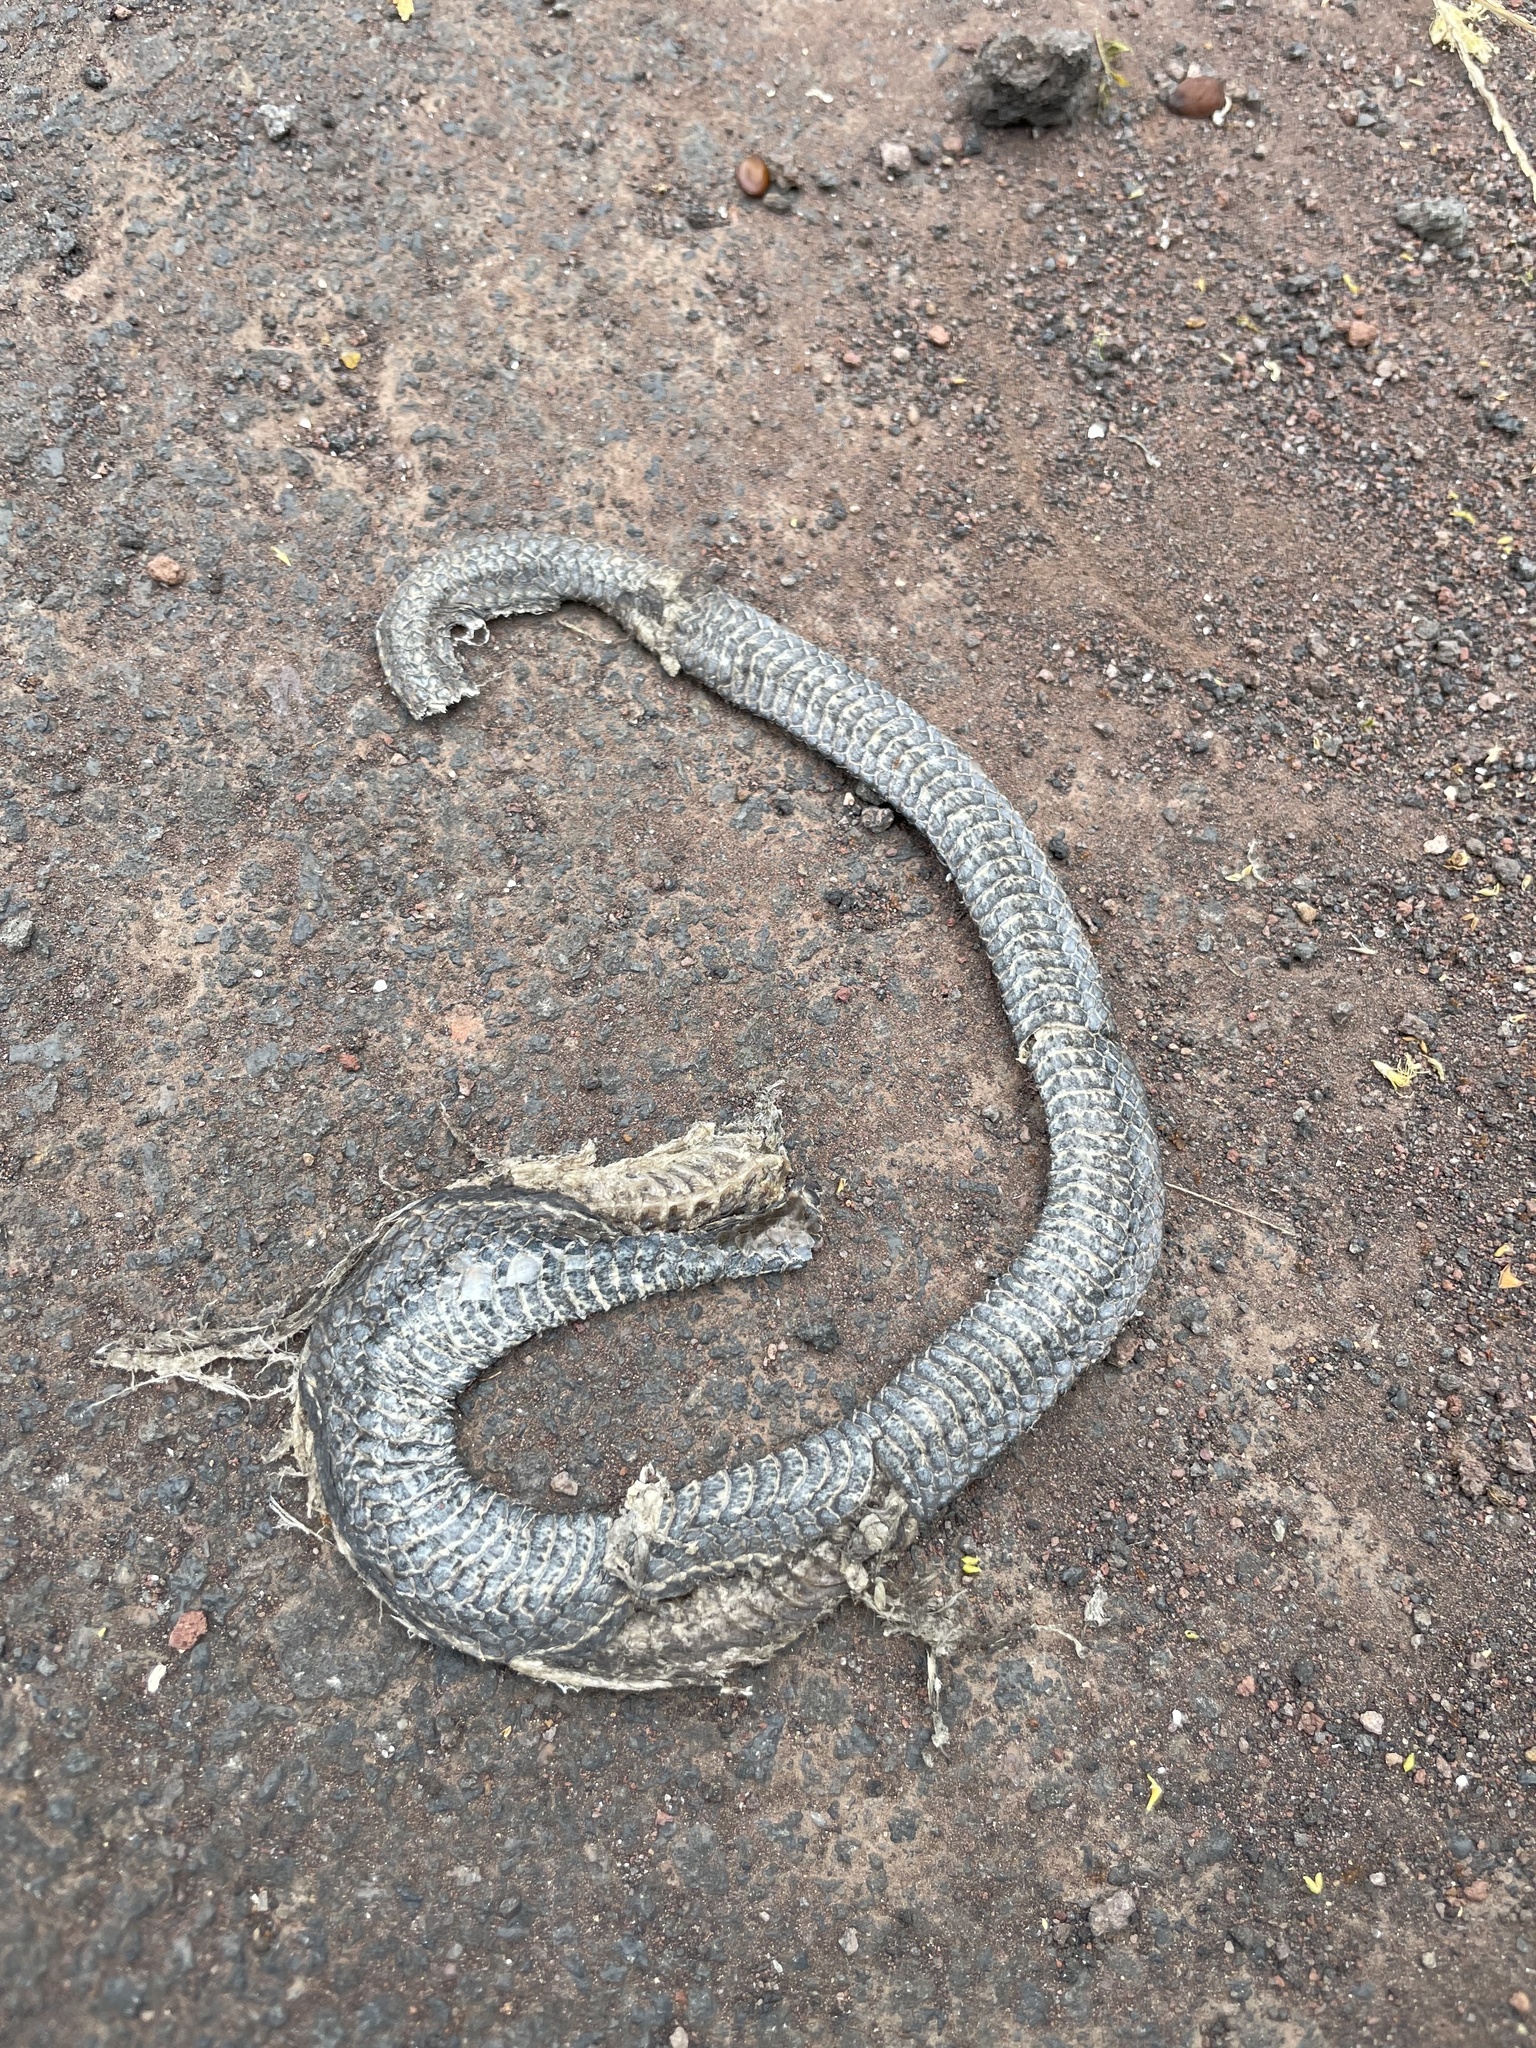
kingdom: Animalia
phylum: Chordata
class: Squamata
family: Colubridae
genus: Pseudalsophis
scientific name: Pseudalsophis biserialis
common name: Galapagos racer
